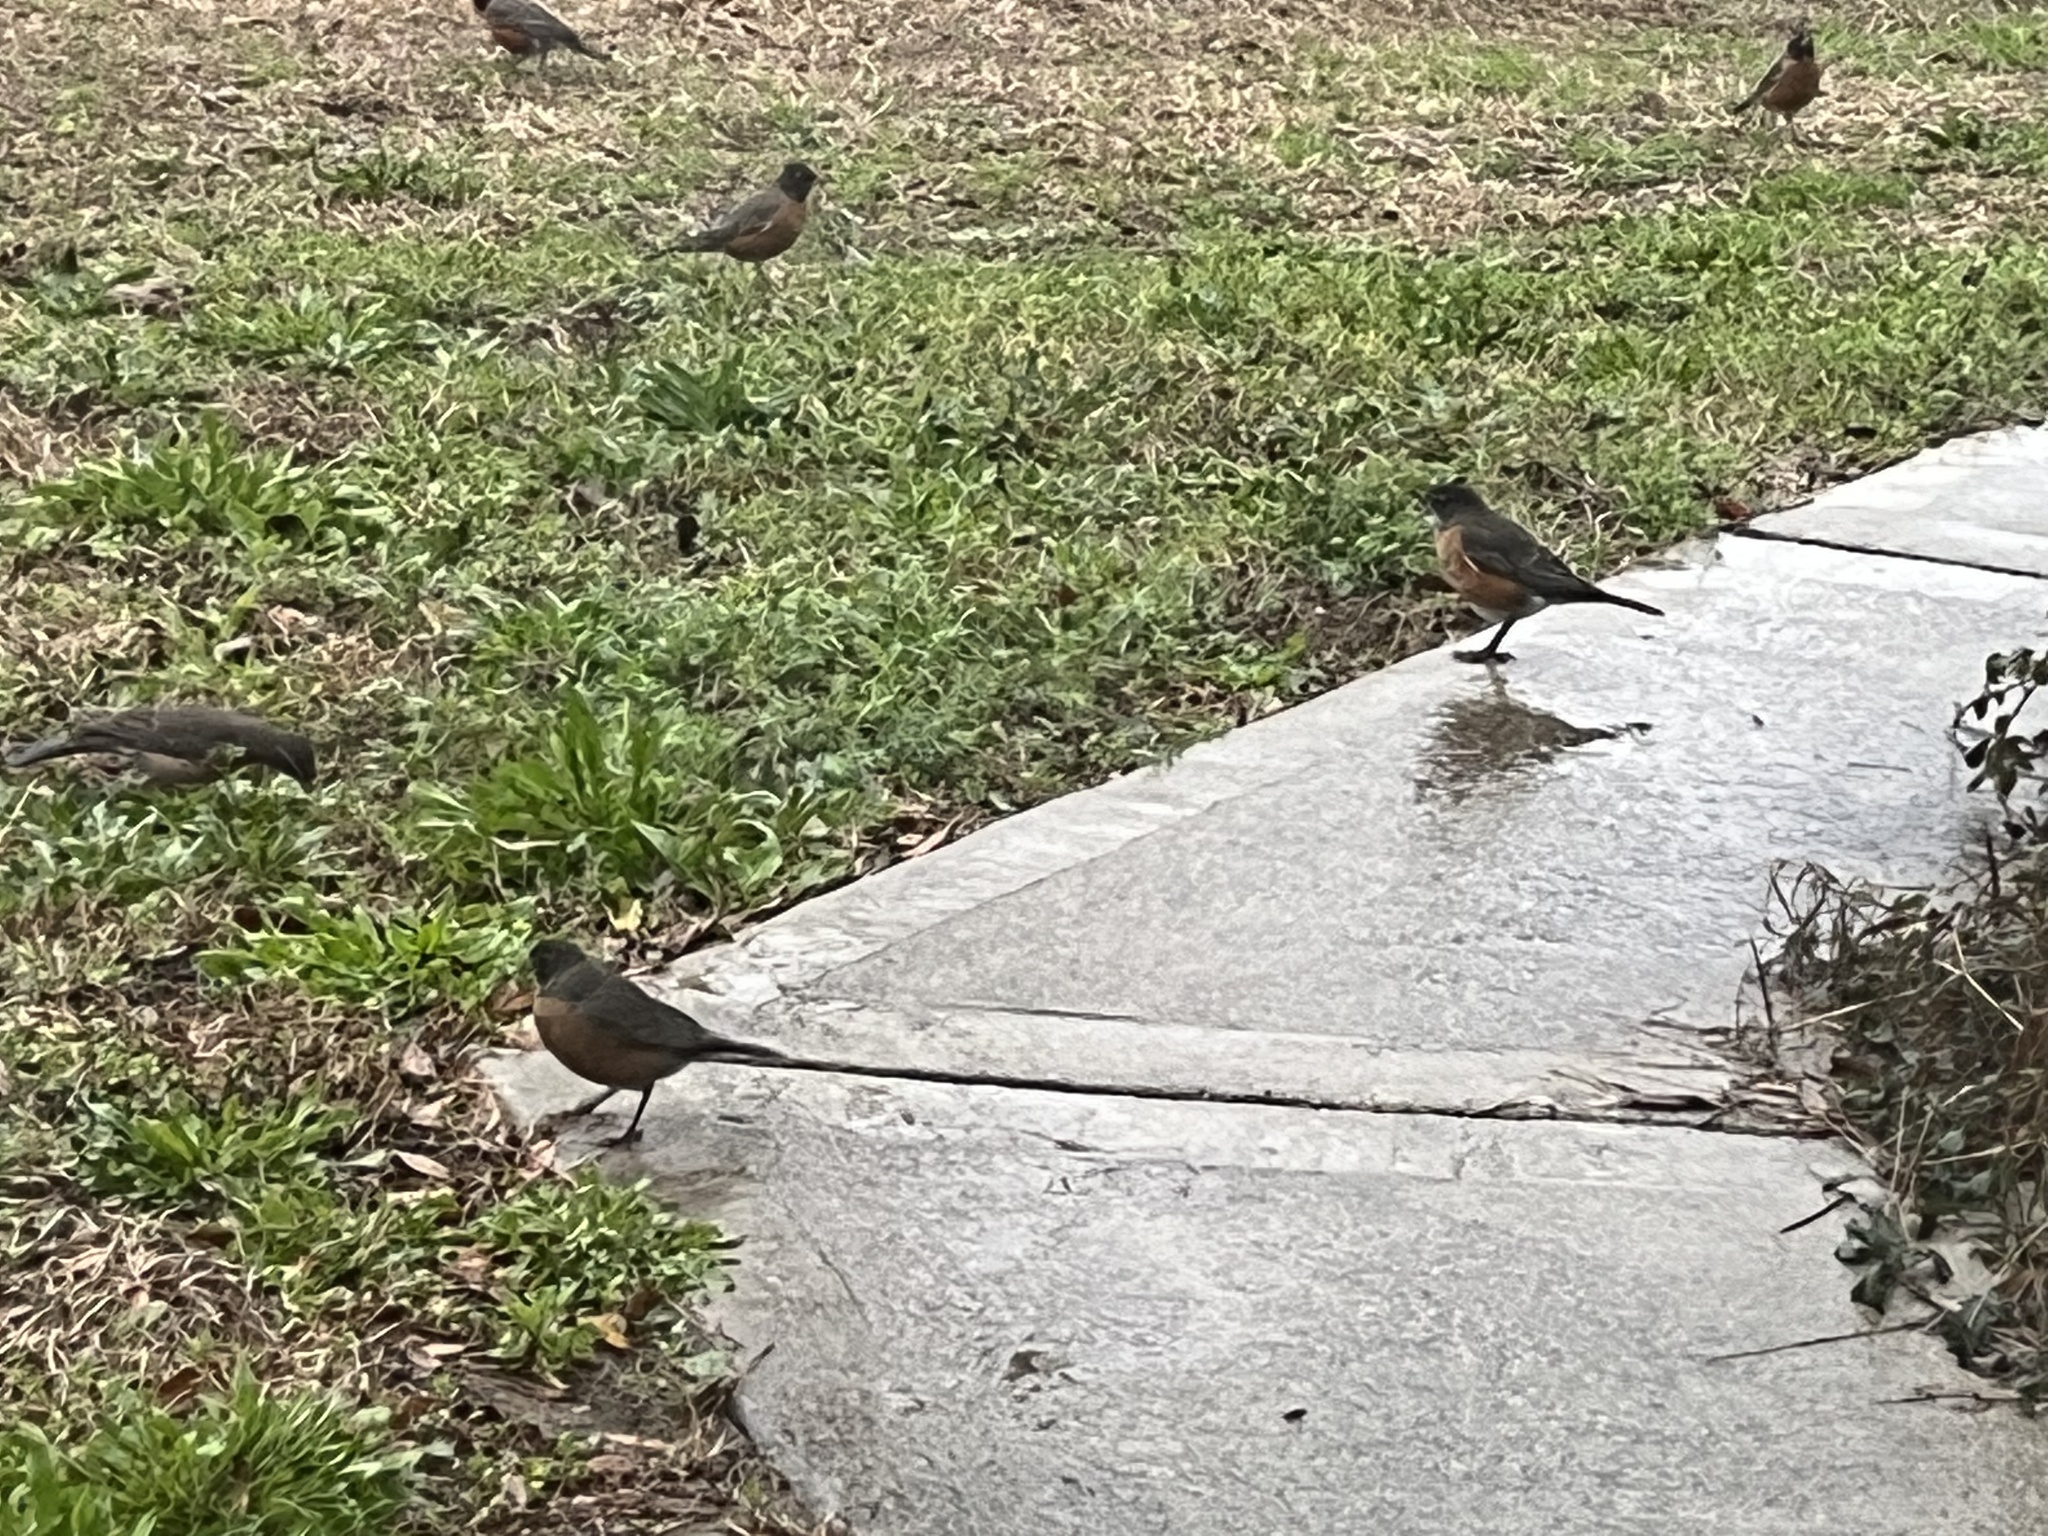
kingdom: Animalia
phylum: Chordata
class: Aves
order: Passeriformes
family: Turdidae
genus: Turdus
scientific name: Turdus migratorius
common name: American robin
